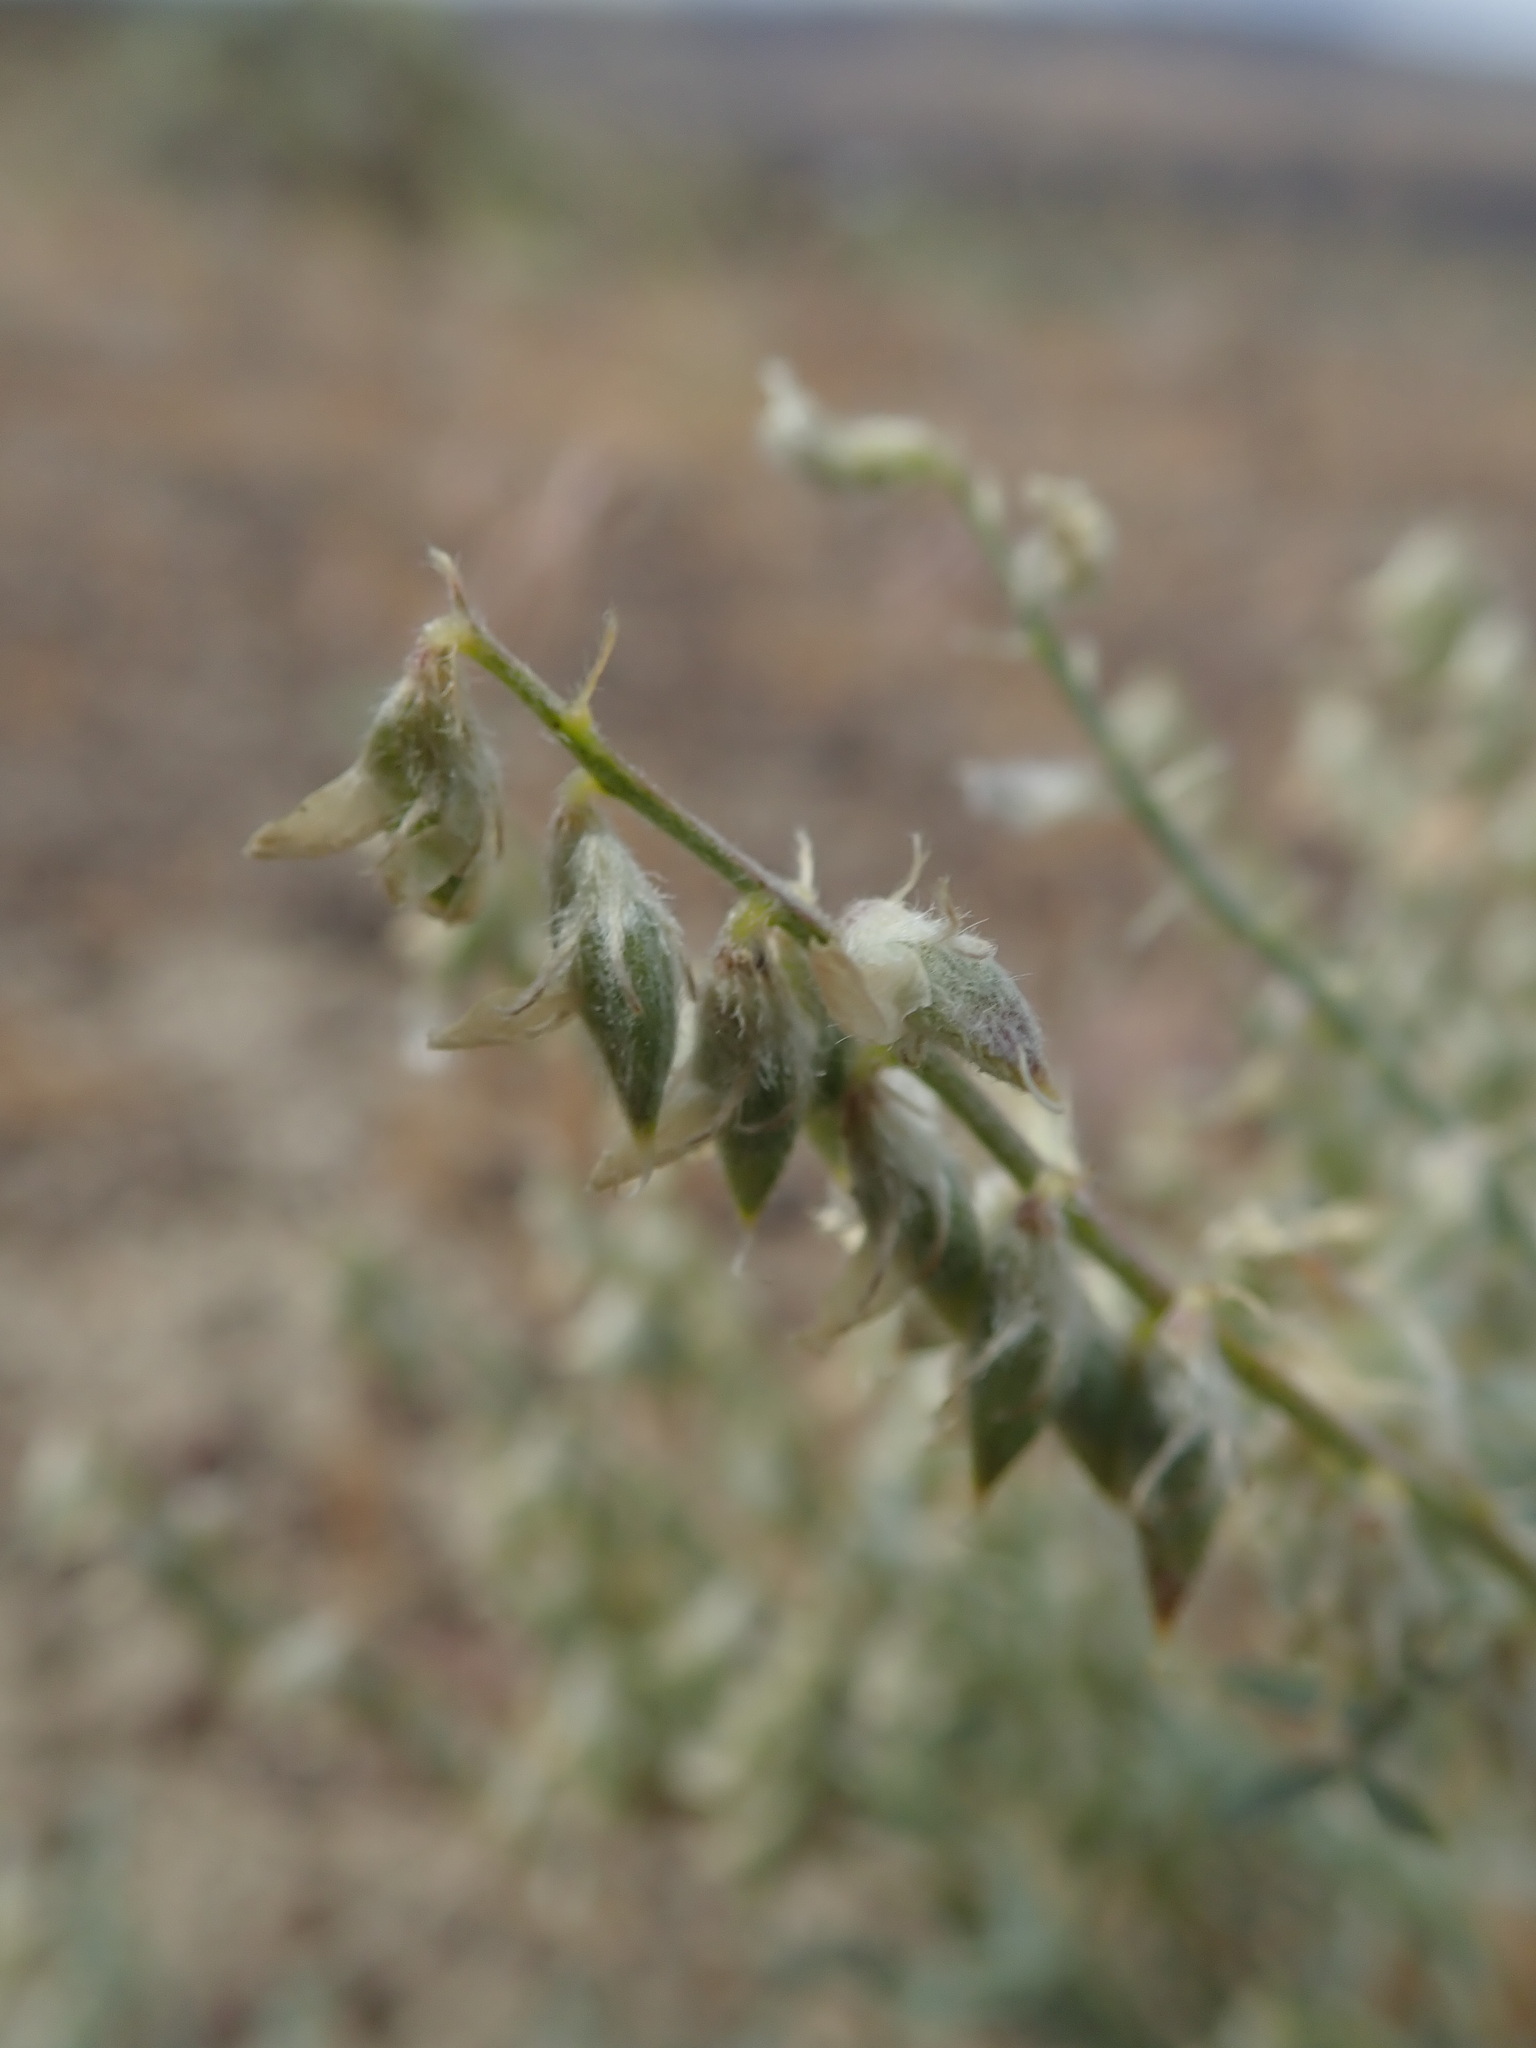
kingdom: Plantae
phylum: Tracheophyta
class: Magnoliopsida
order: Fabales
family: Fabaceae
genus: Astragalus
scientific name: Astragalus caricinus
